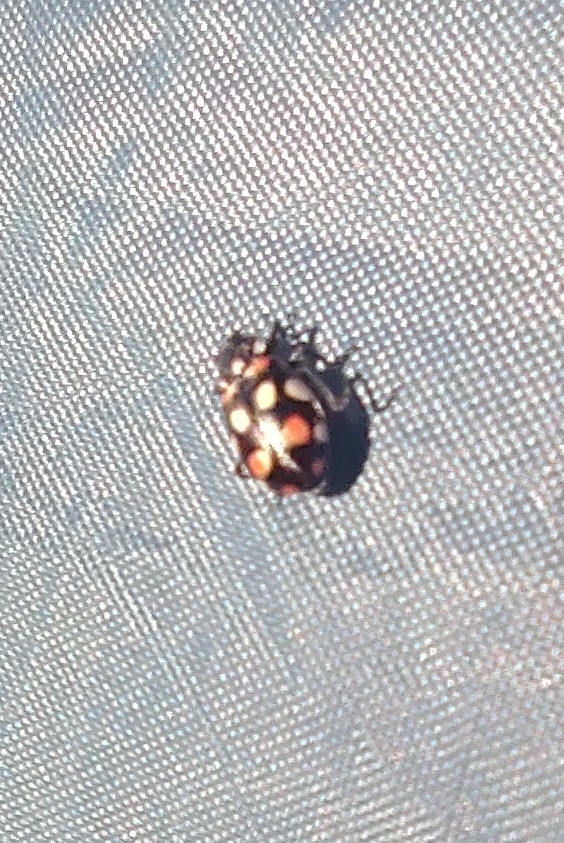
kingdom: Animalia
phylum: Arthropoda
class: Insecta
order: Coleoptera
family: Coccinellidae
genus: Eriopis
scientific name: Eriopis connexa
